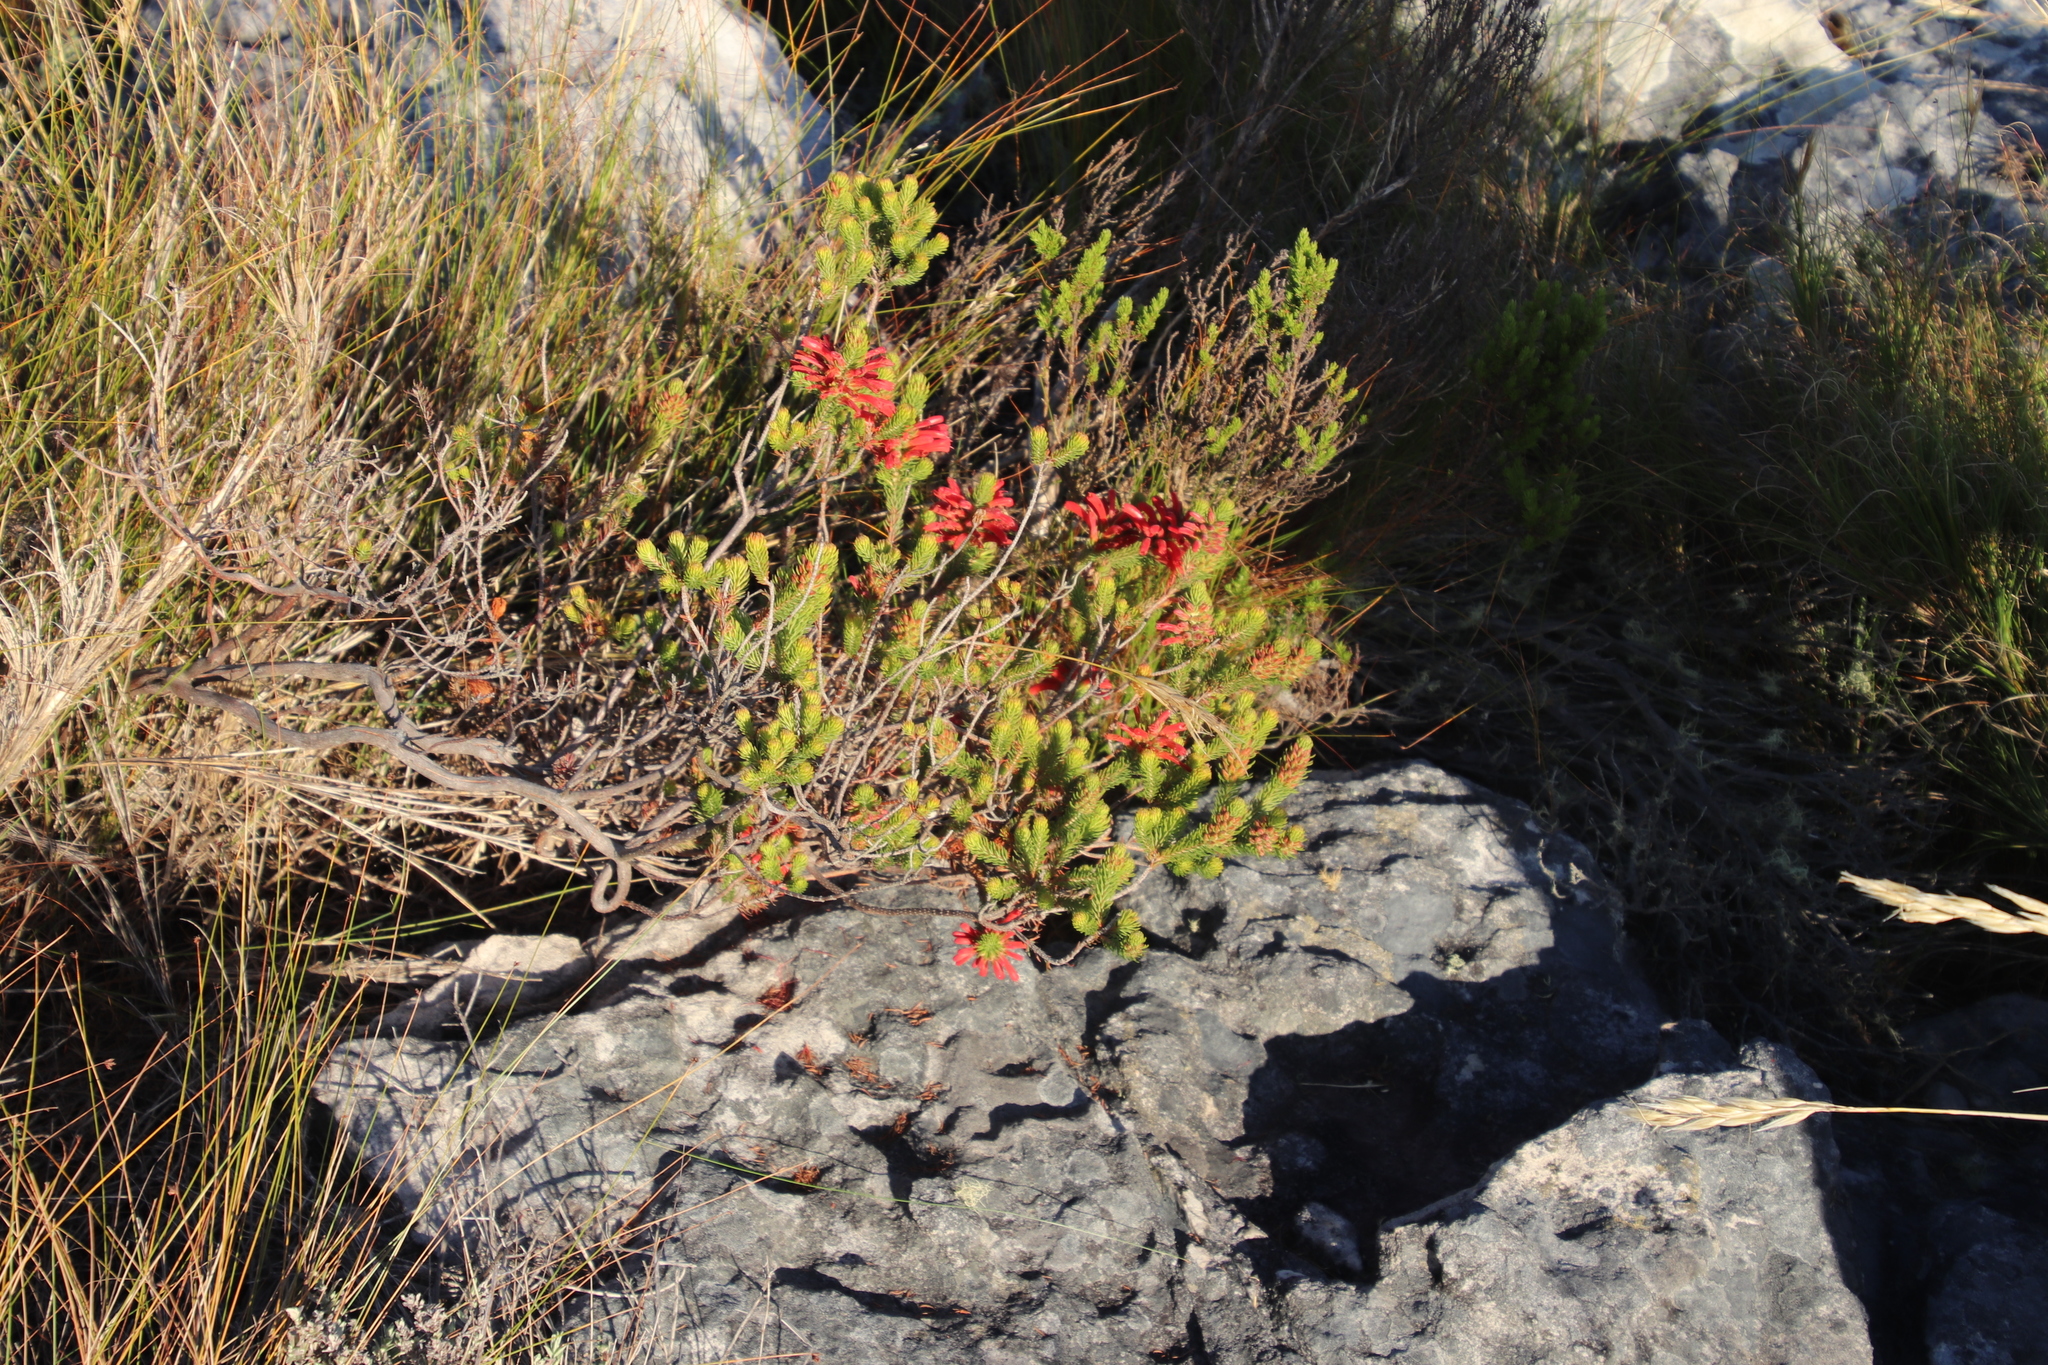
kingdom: Plantae
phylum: Tracheophyta
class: Magnoliopsida
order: Ericales
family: Ericaceae
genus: Erica
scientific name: Erica abietina
